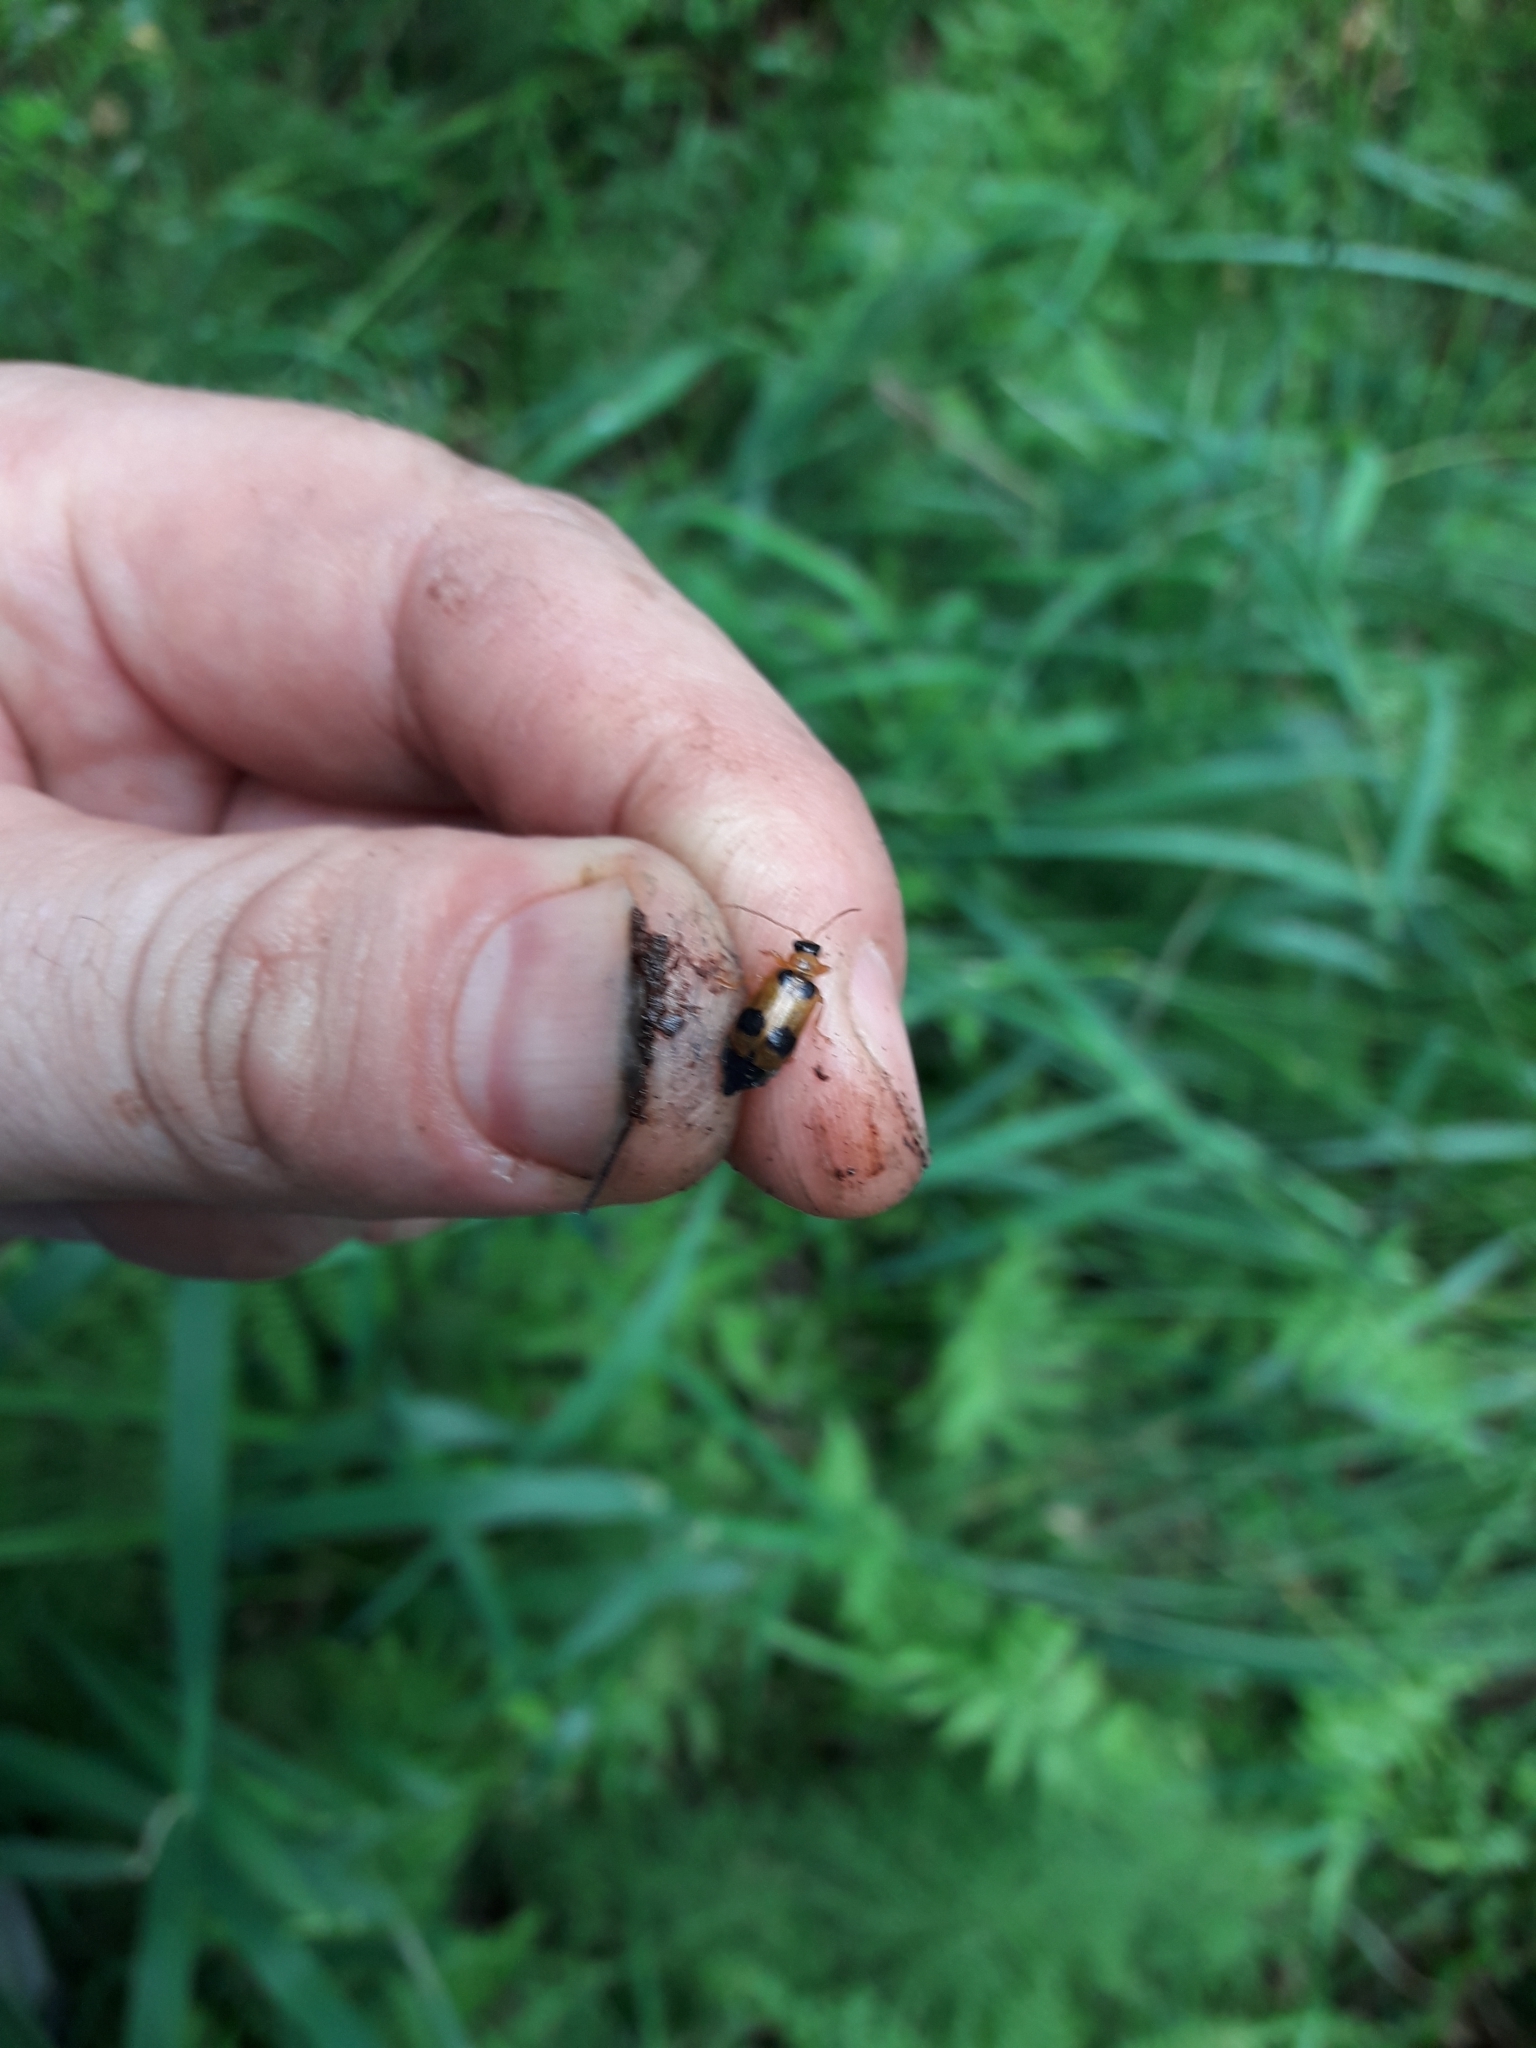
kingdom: Animalia
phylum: Arthropoda
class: Insecta
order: Coleoptera
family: Chrysomelidae
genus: Phyllobrotica
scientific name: Phyllobrotica quadrimaculata
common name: Skullcap leaf beetle
